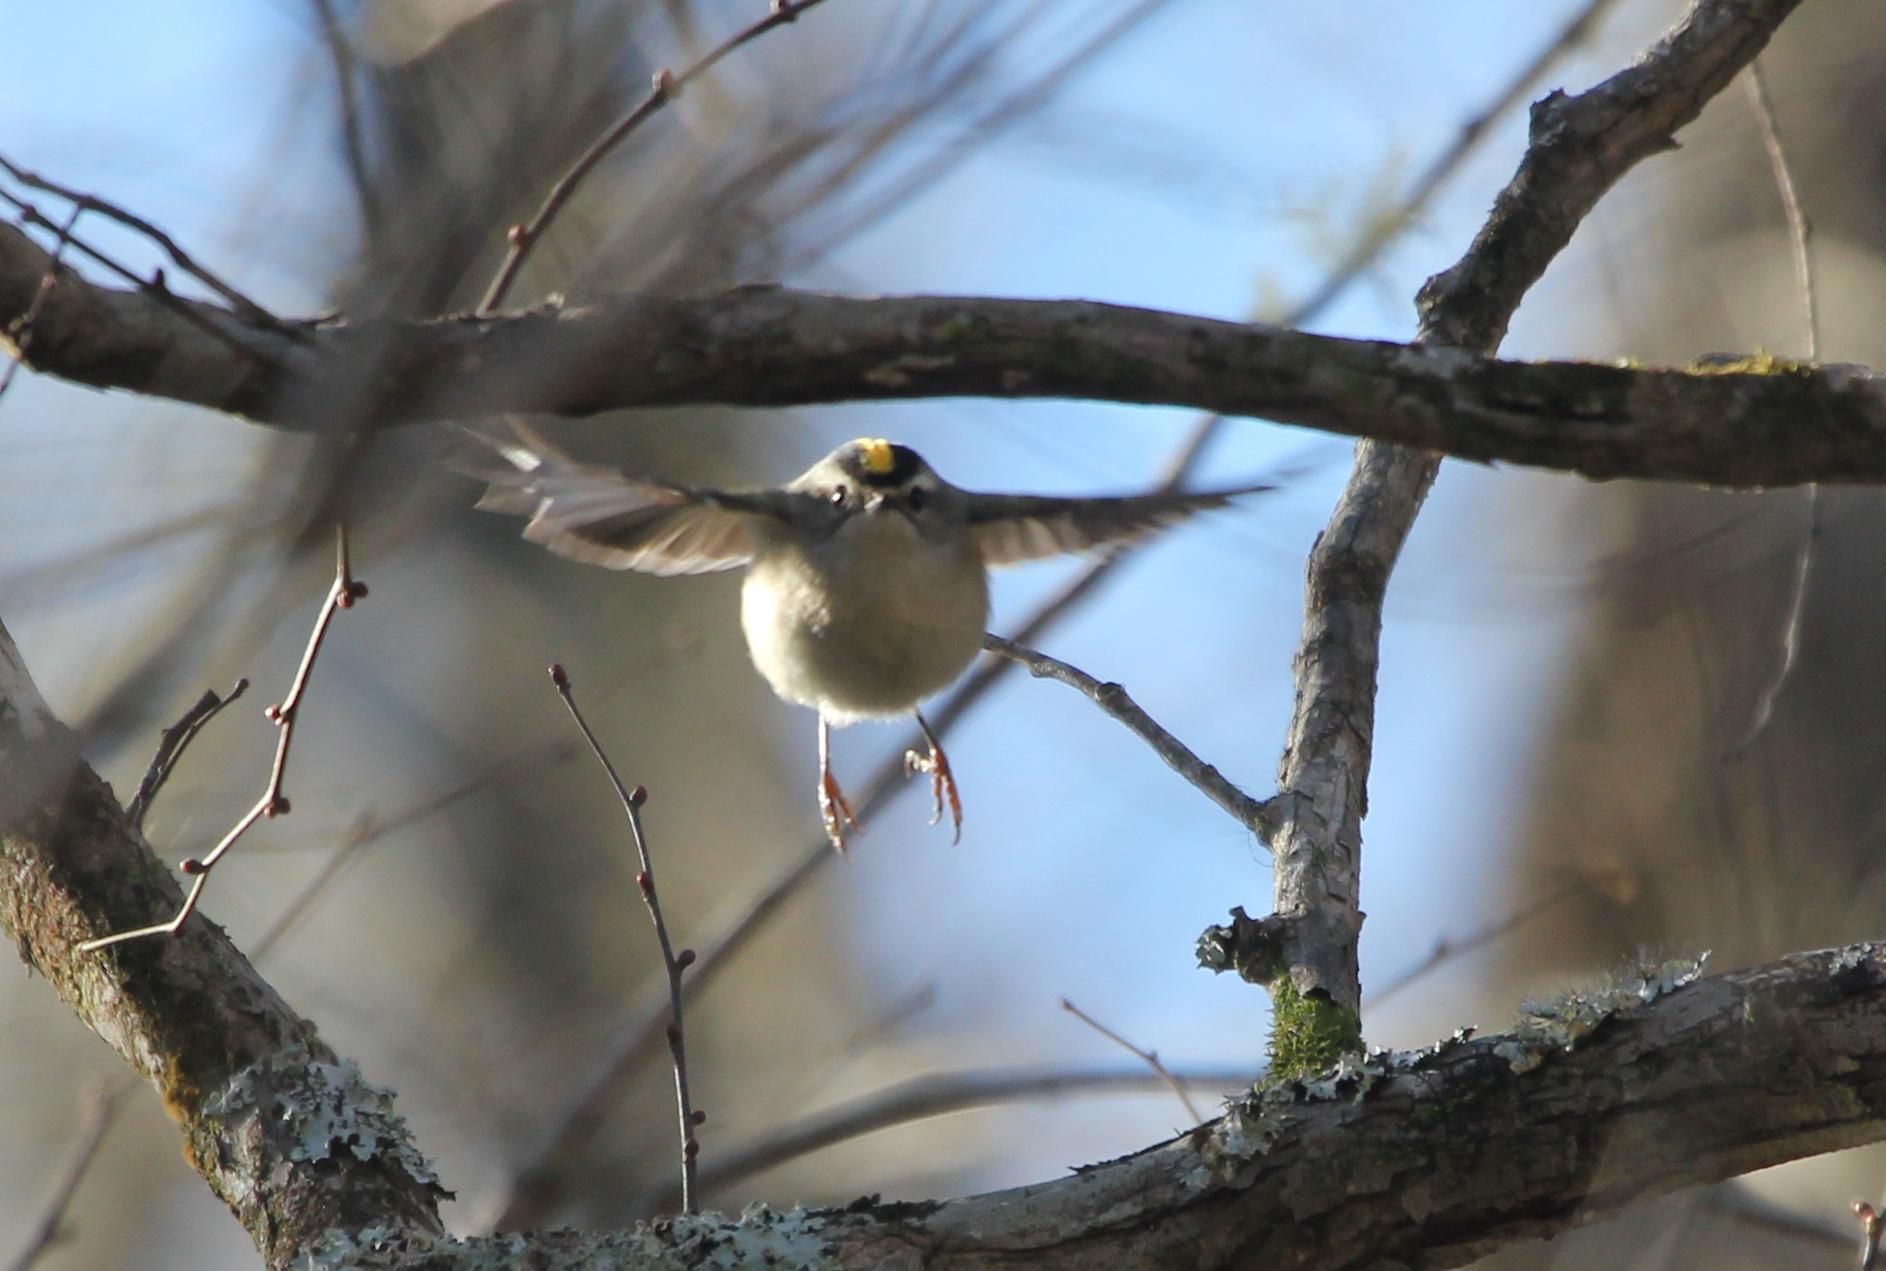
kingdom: Animalia
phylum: Chordata
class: Aves
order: Passeriformes
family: Regulidae
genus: Regulus
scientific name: Regulus satrapa
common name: Golden-crowned kinglet
